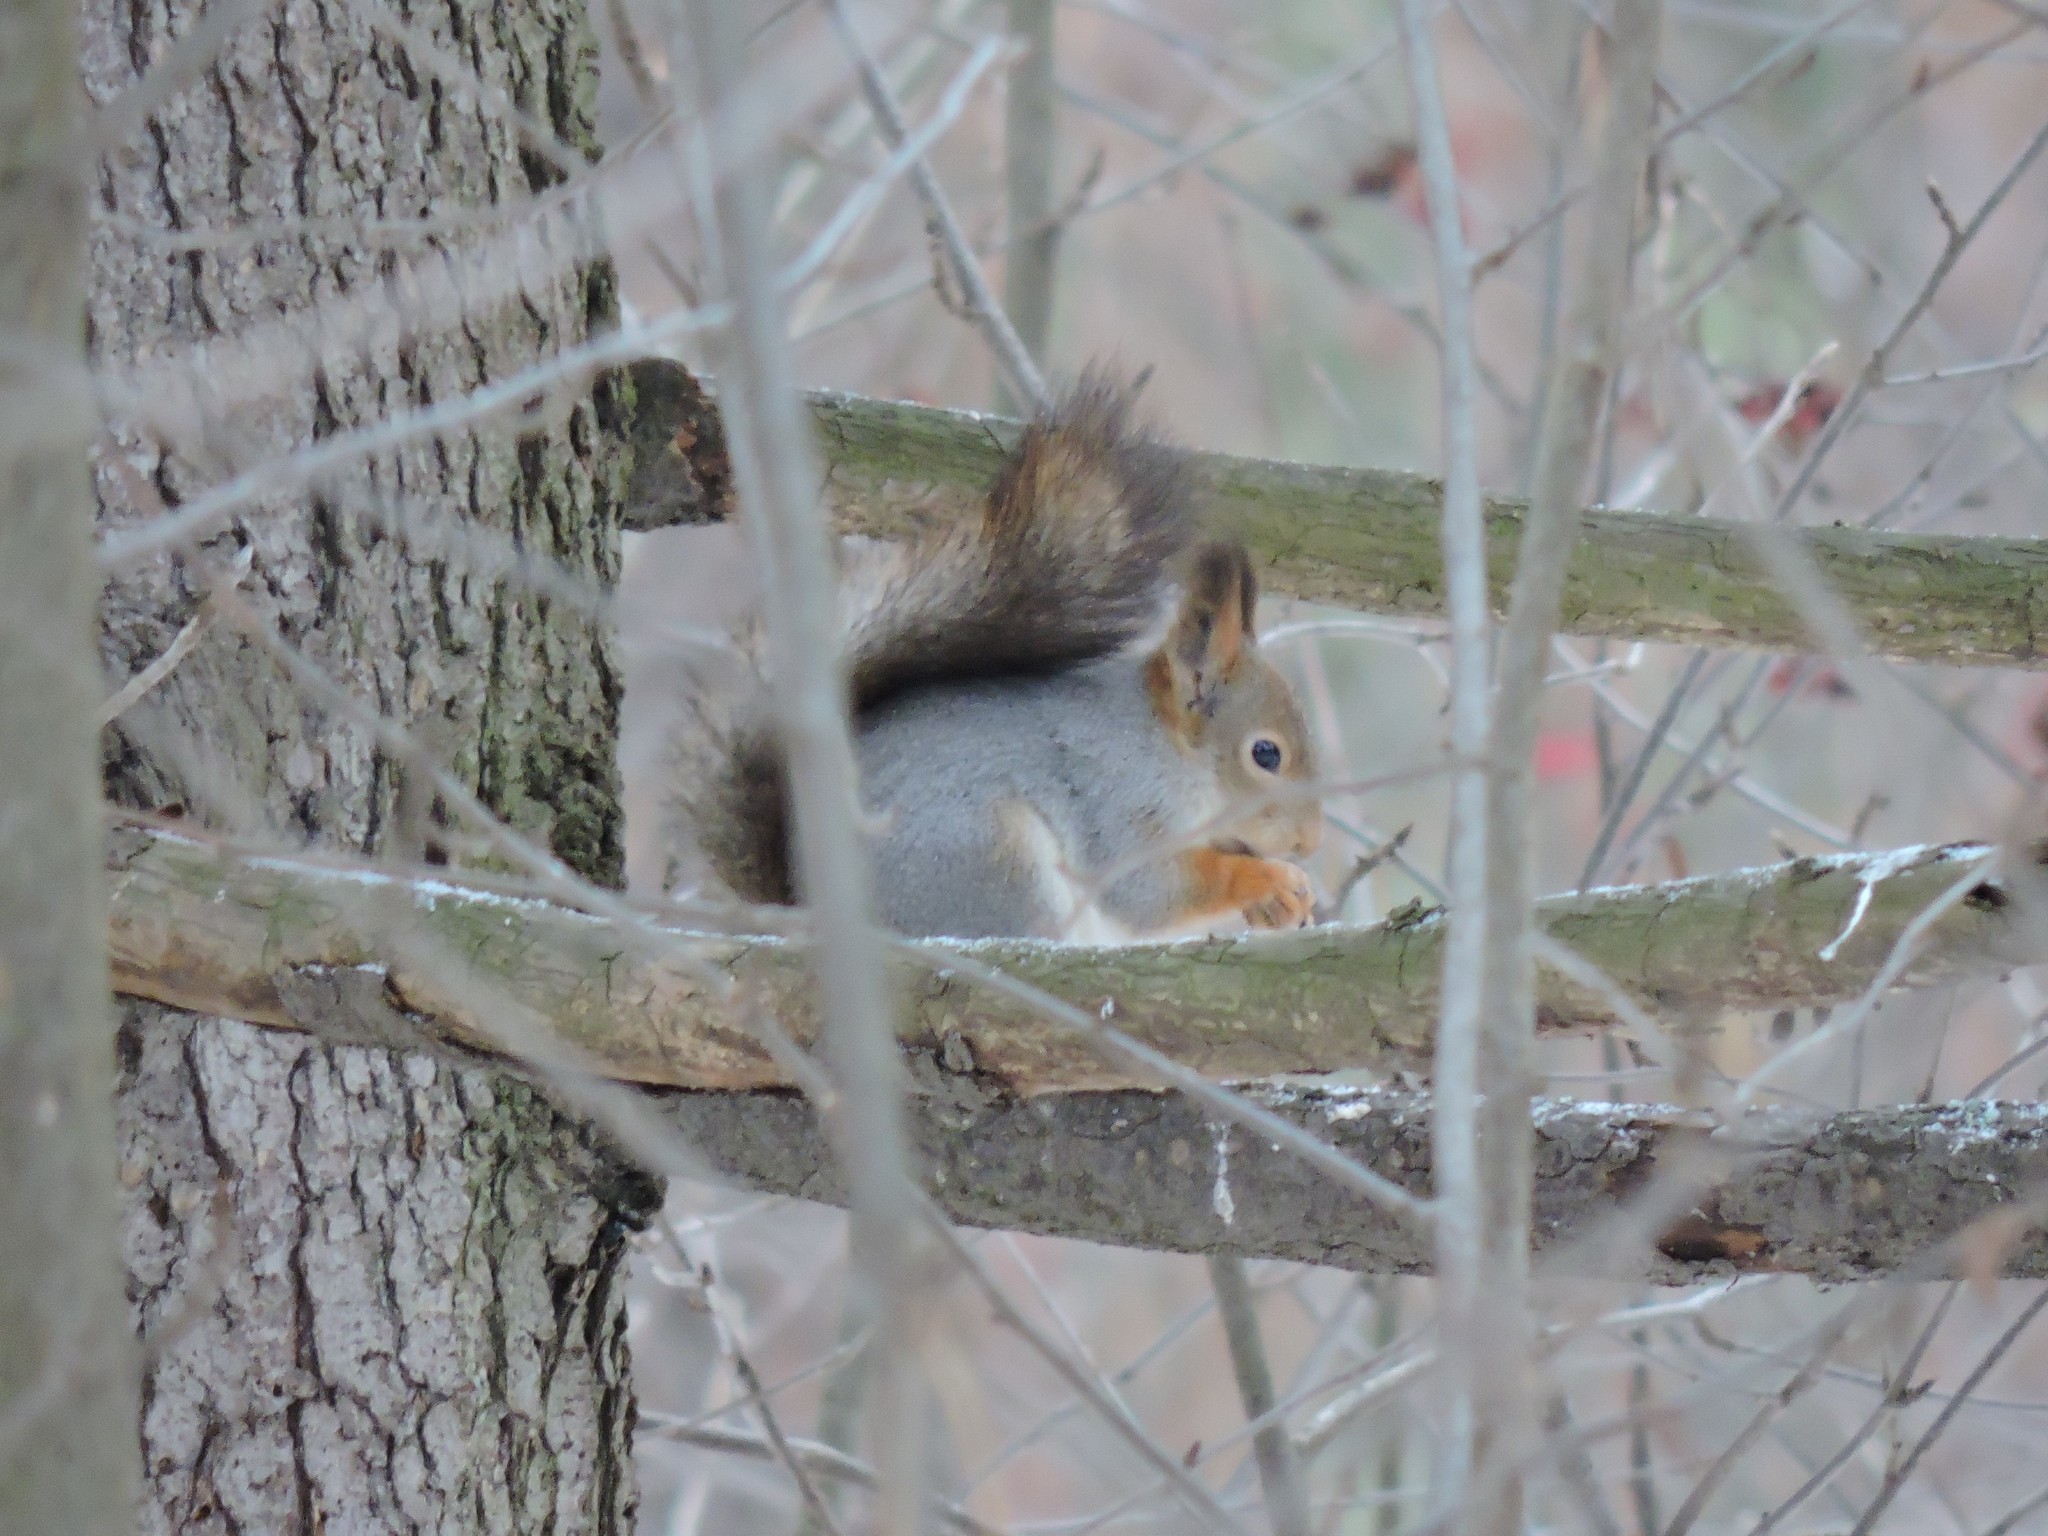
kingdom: Animalia
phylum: Chordata
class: Mammalia
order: Rodentia
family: Sciuridae
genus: Sciurus
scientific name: Sciurus vulgaris
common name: Eurasian red squirrel
